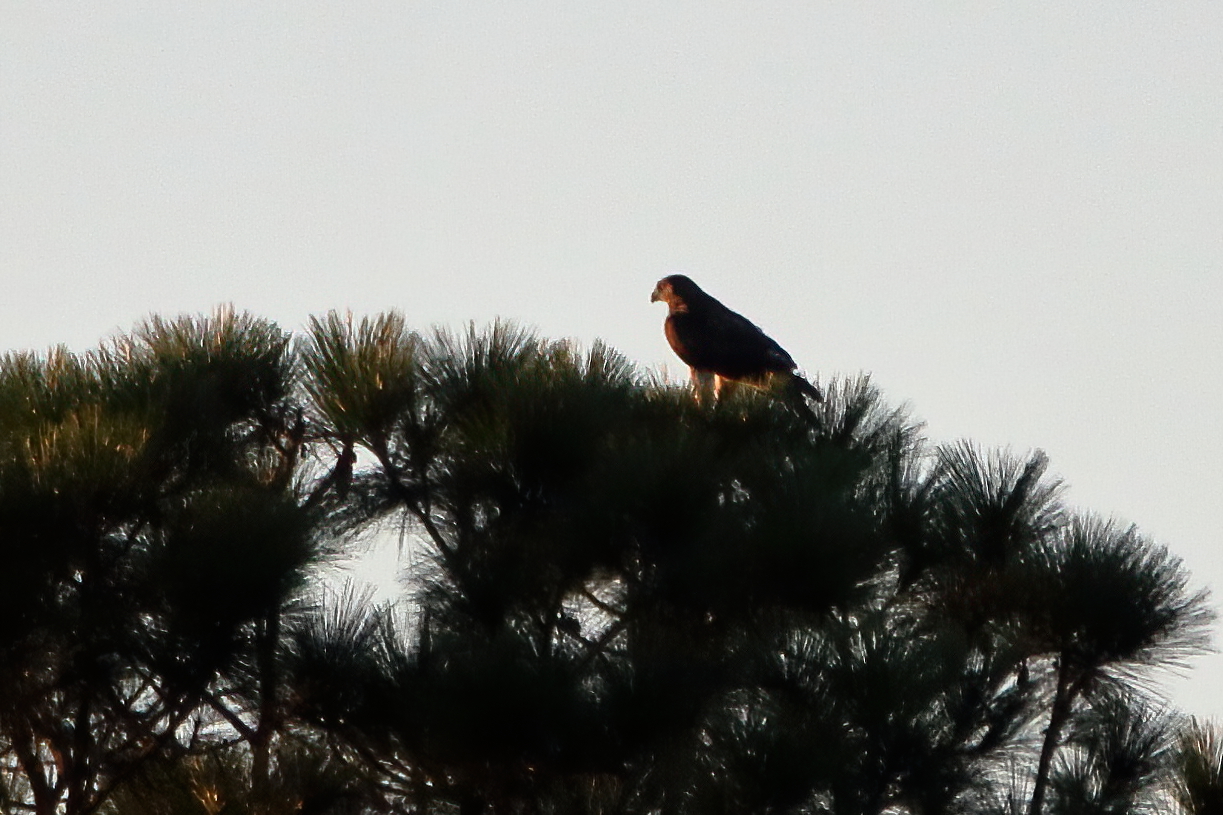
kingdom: Animalia
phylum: Chordata
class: Aves
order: Accipitriformes
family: Accipitridae
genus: Buteo
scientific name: Buteo jamaicensis
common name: Red-tailed hawk
